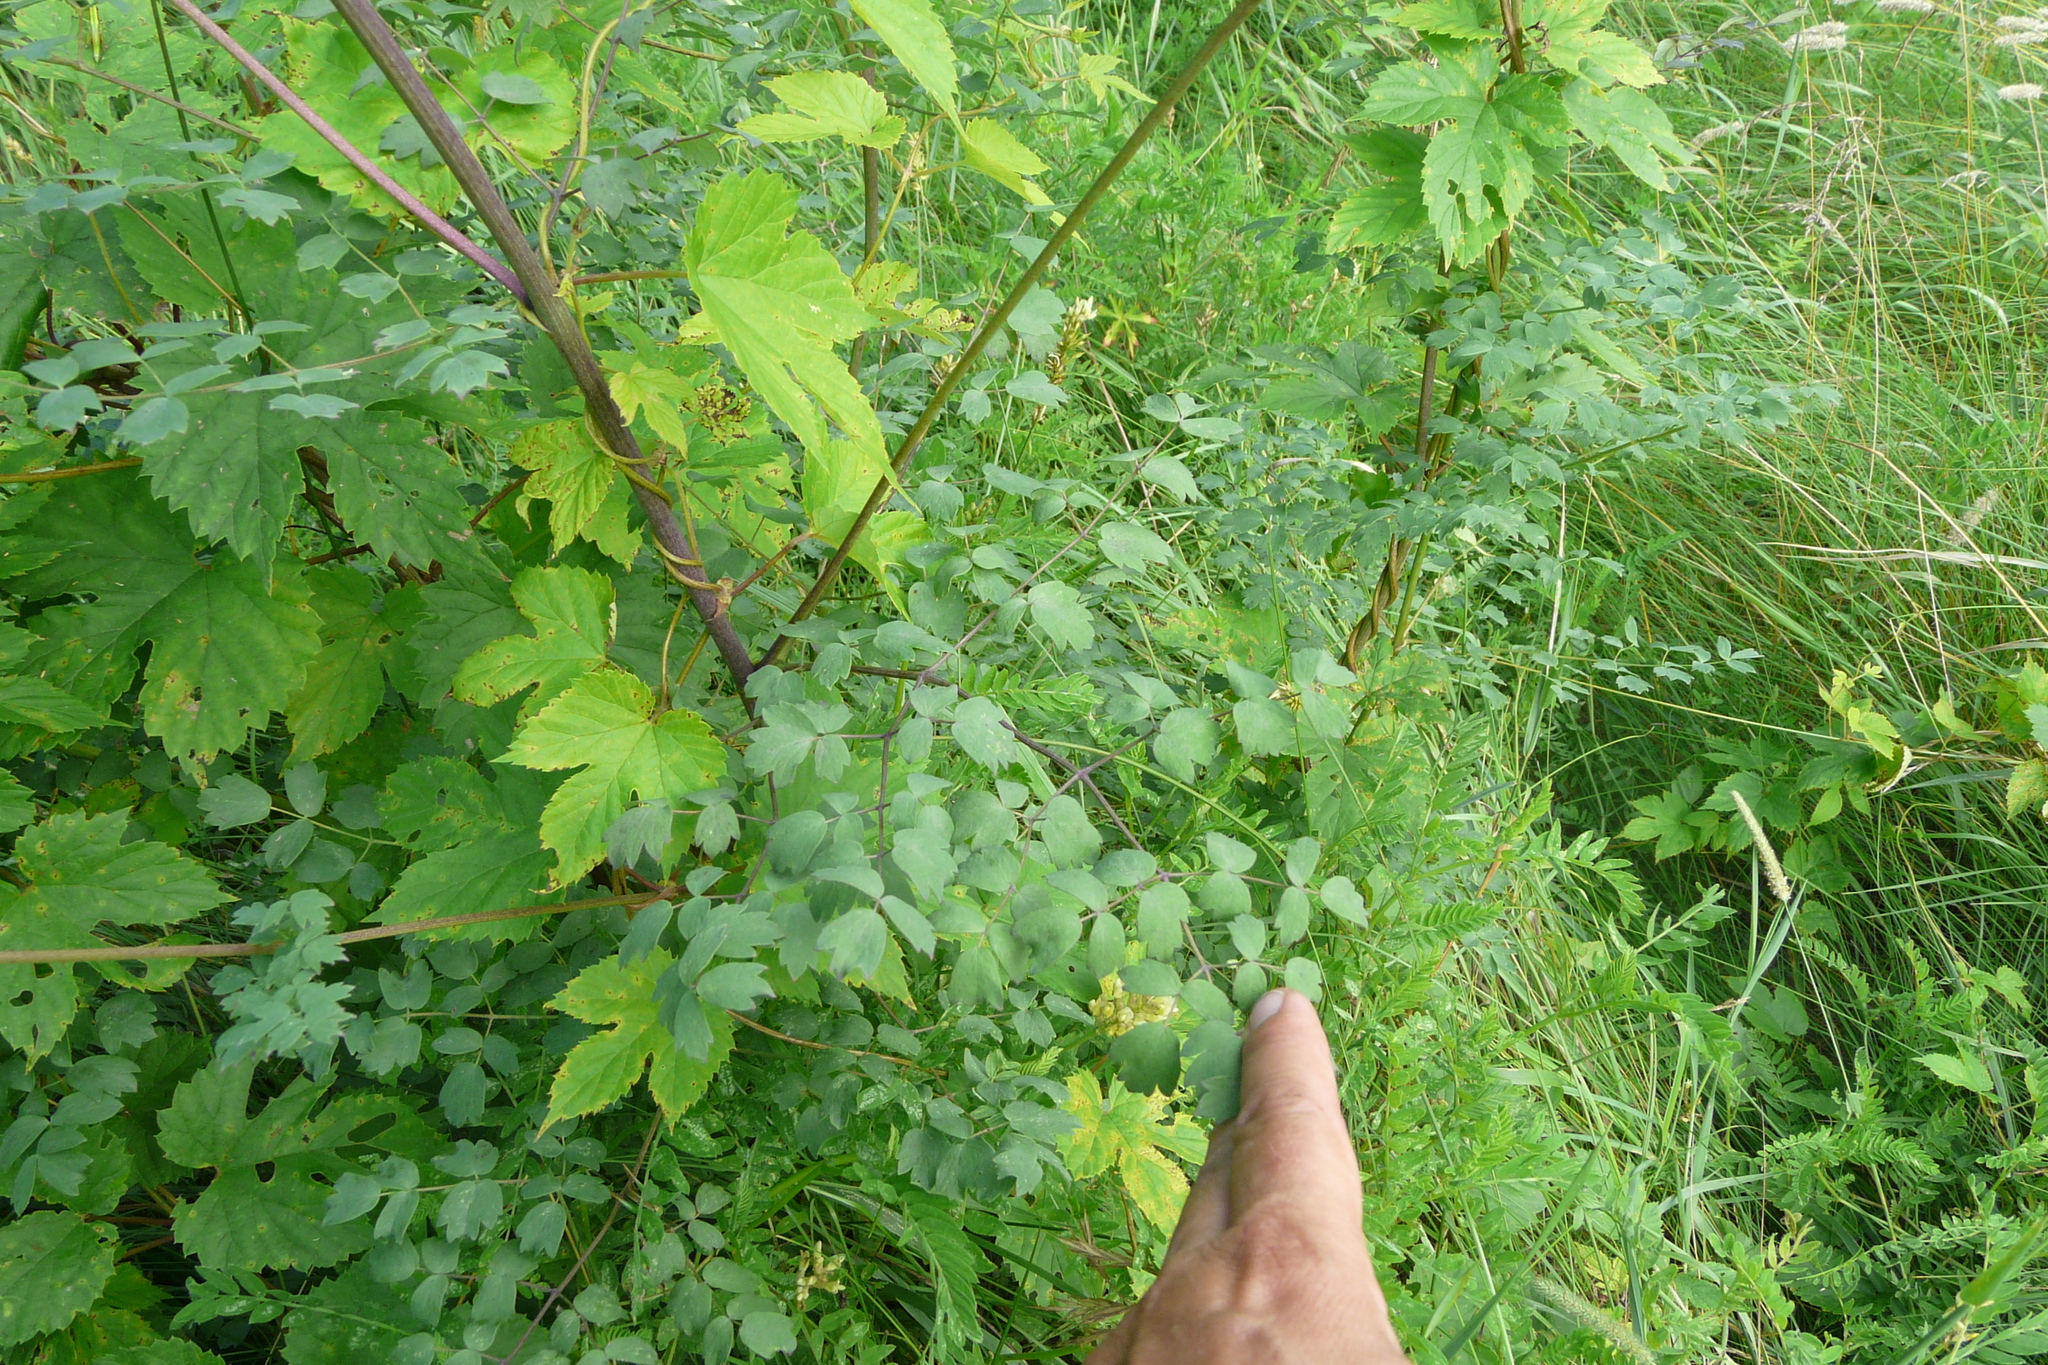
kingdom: Plantae
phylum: Tracheophyta
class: Magnoliopsida
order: Ranunculales
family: Ranunculaceae
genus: Thalictrum
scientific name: Thalictrum simplex
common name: Small meadow-rue
